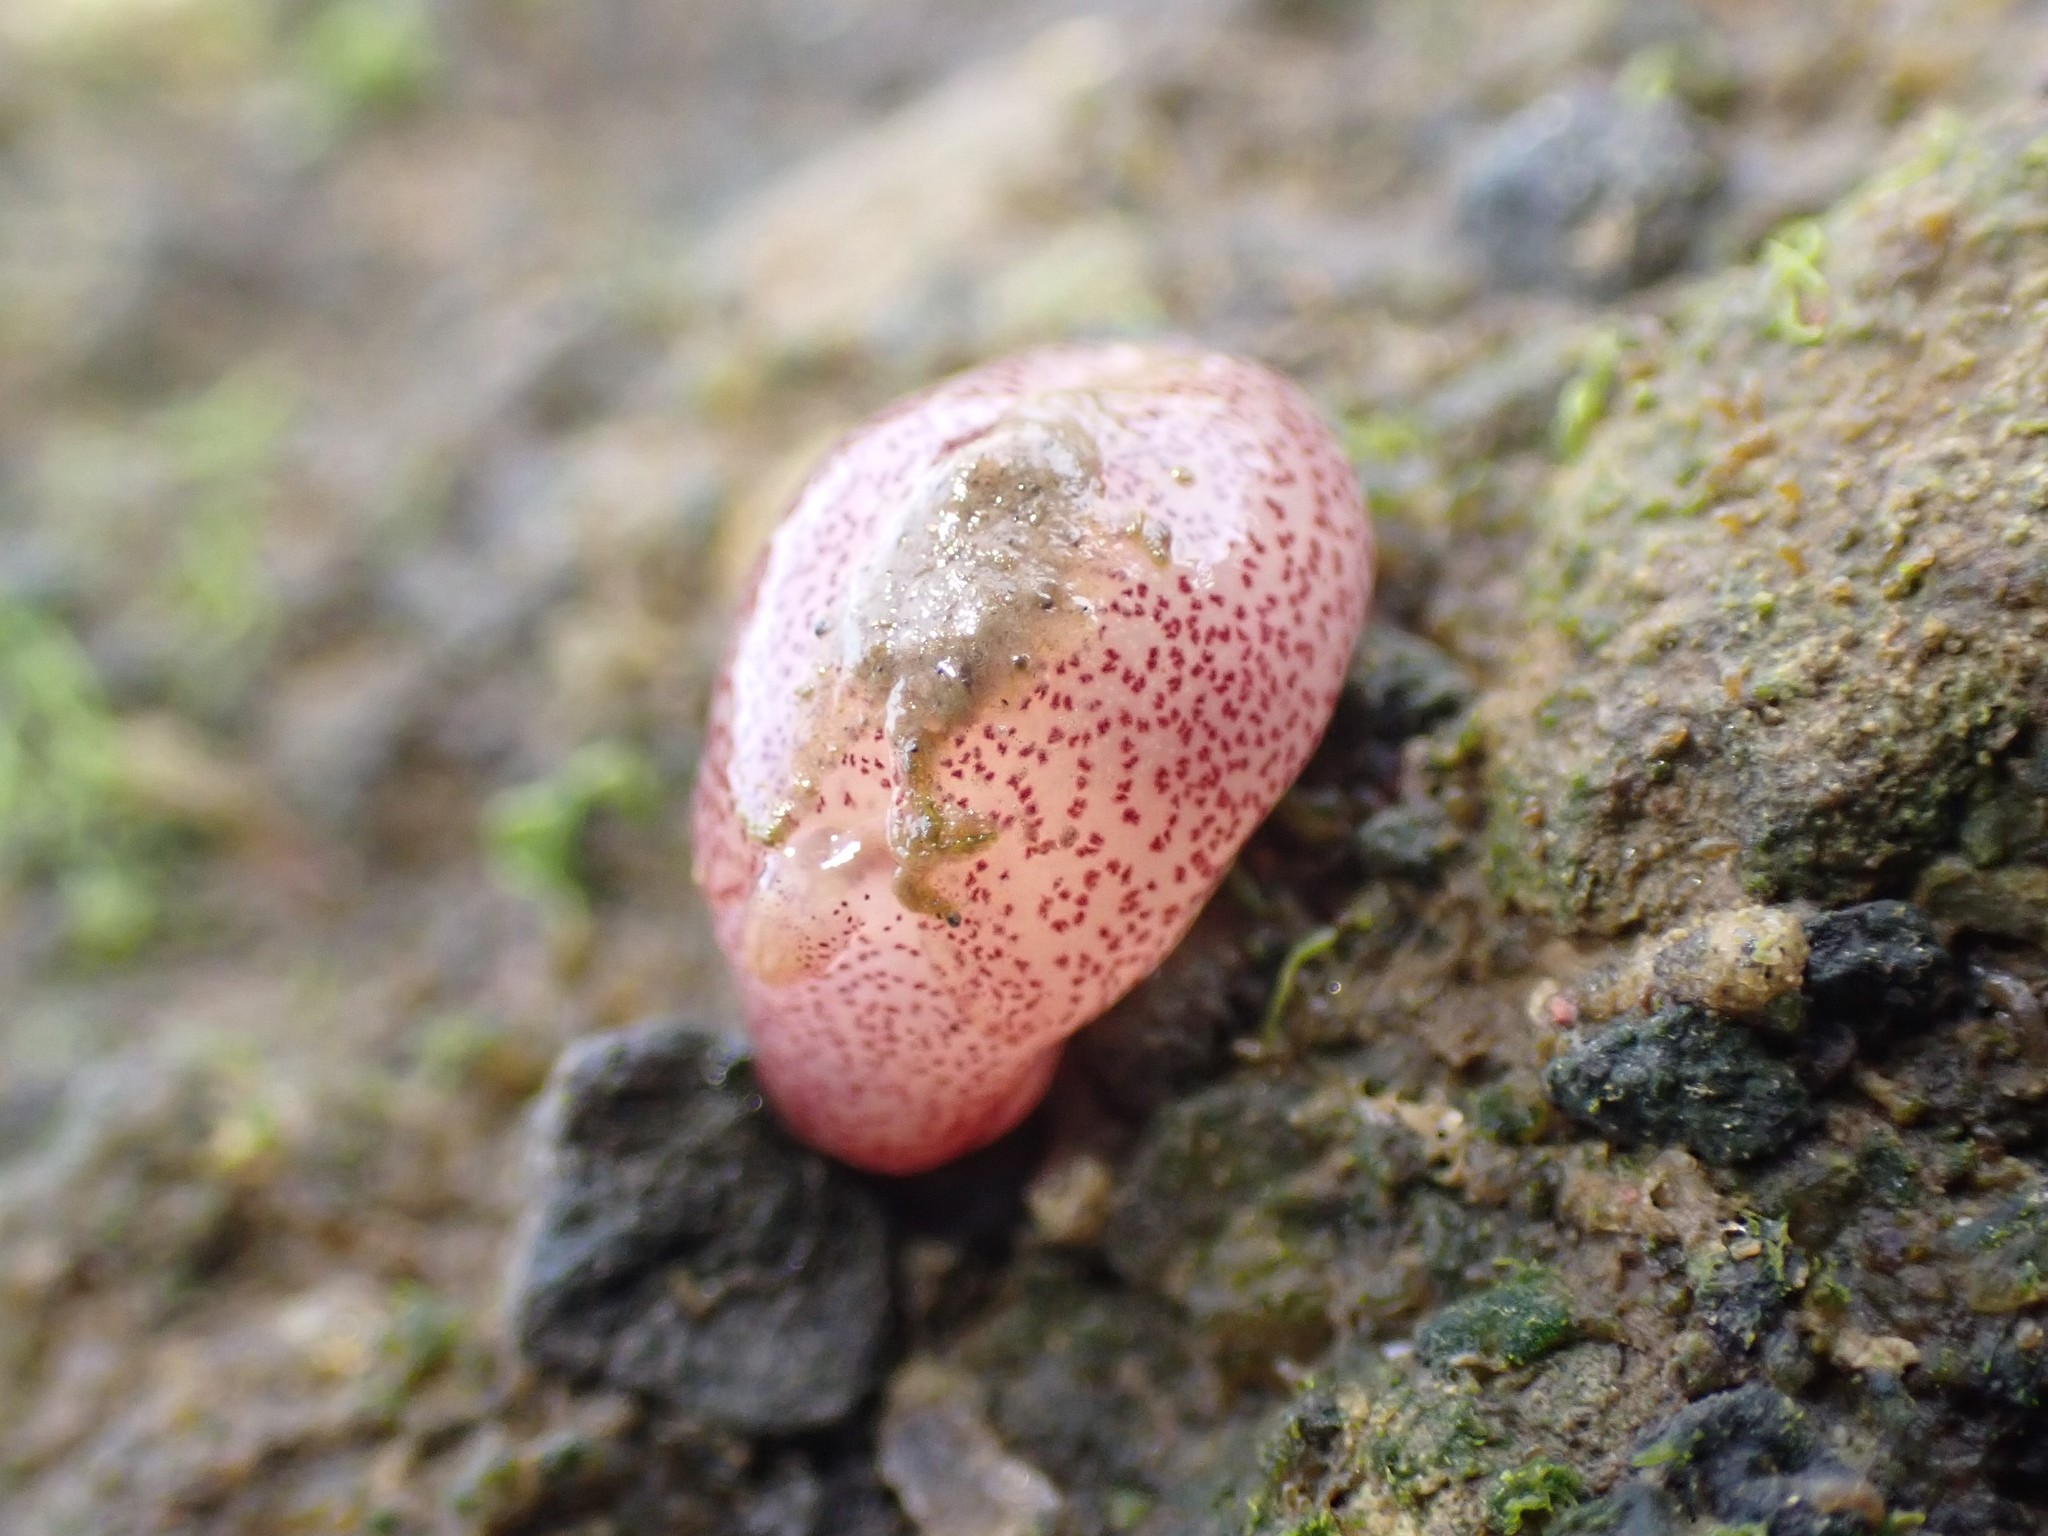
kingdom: Animalia
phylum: Mollusca
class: Gastropoda
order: Cephalaspidea
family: Gastropteridae
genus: Gastropteron
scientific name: Gastropteron pacificum
